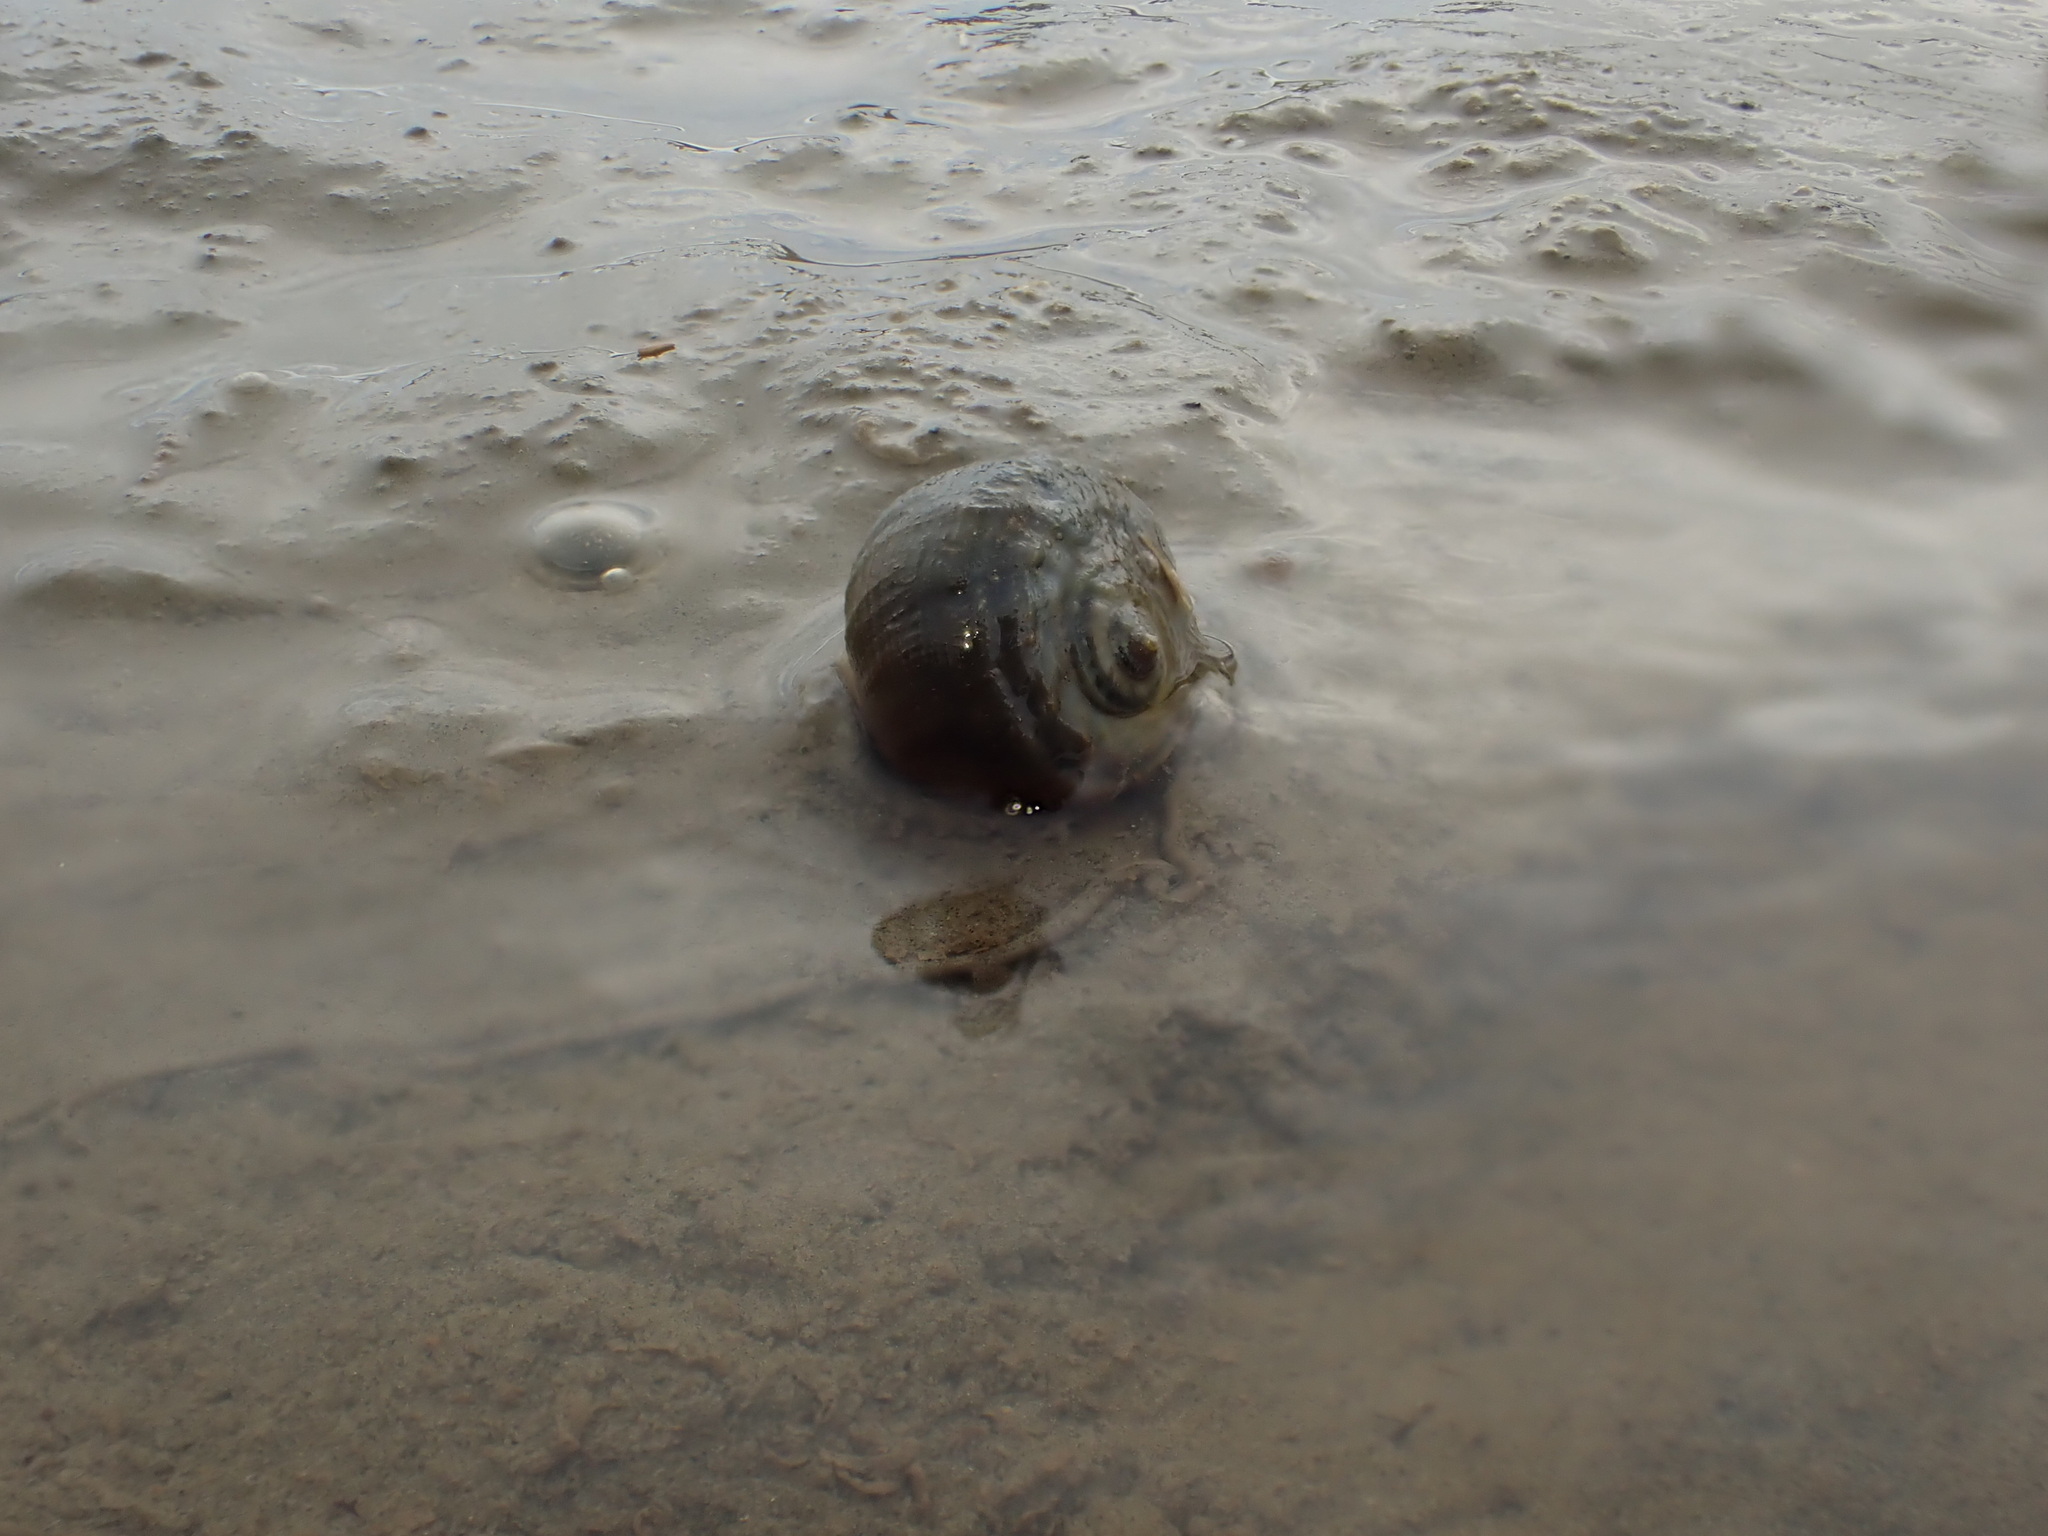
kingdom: Animalia
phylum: Mollusca
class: Gastropoda
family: Amphibolidae
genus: Amphibola
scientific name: Amphibola crenata
